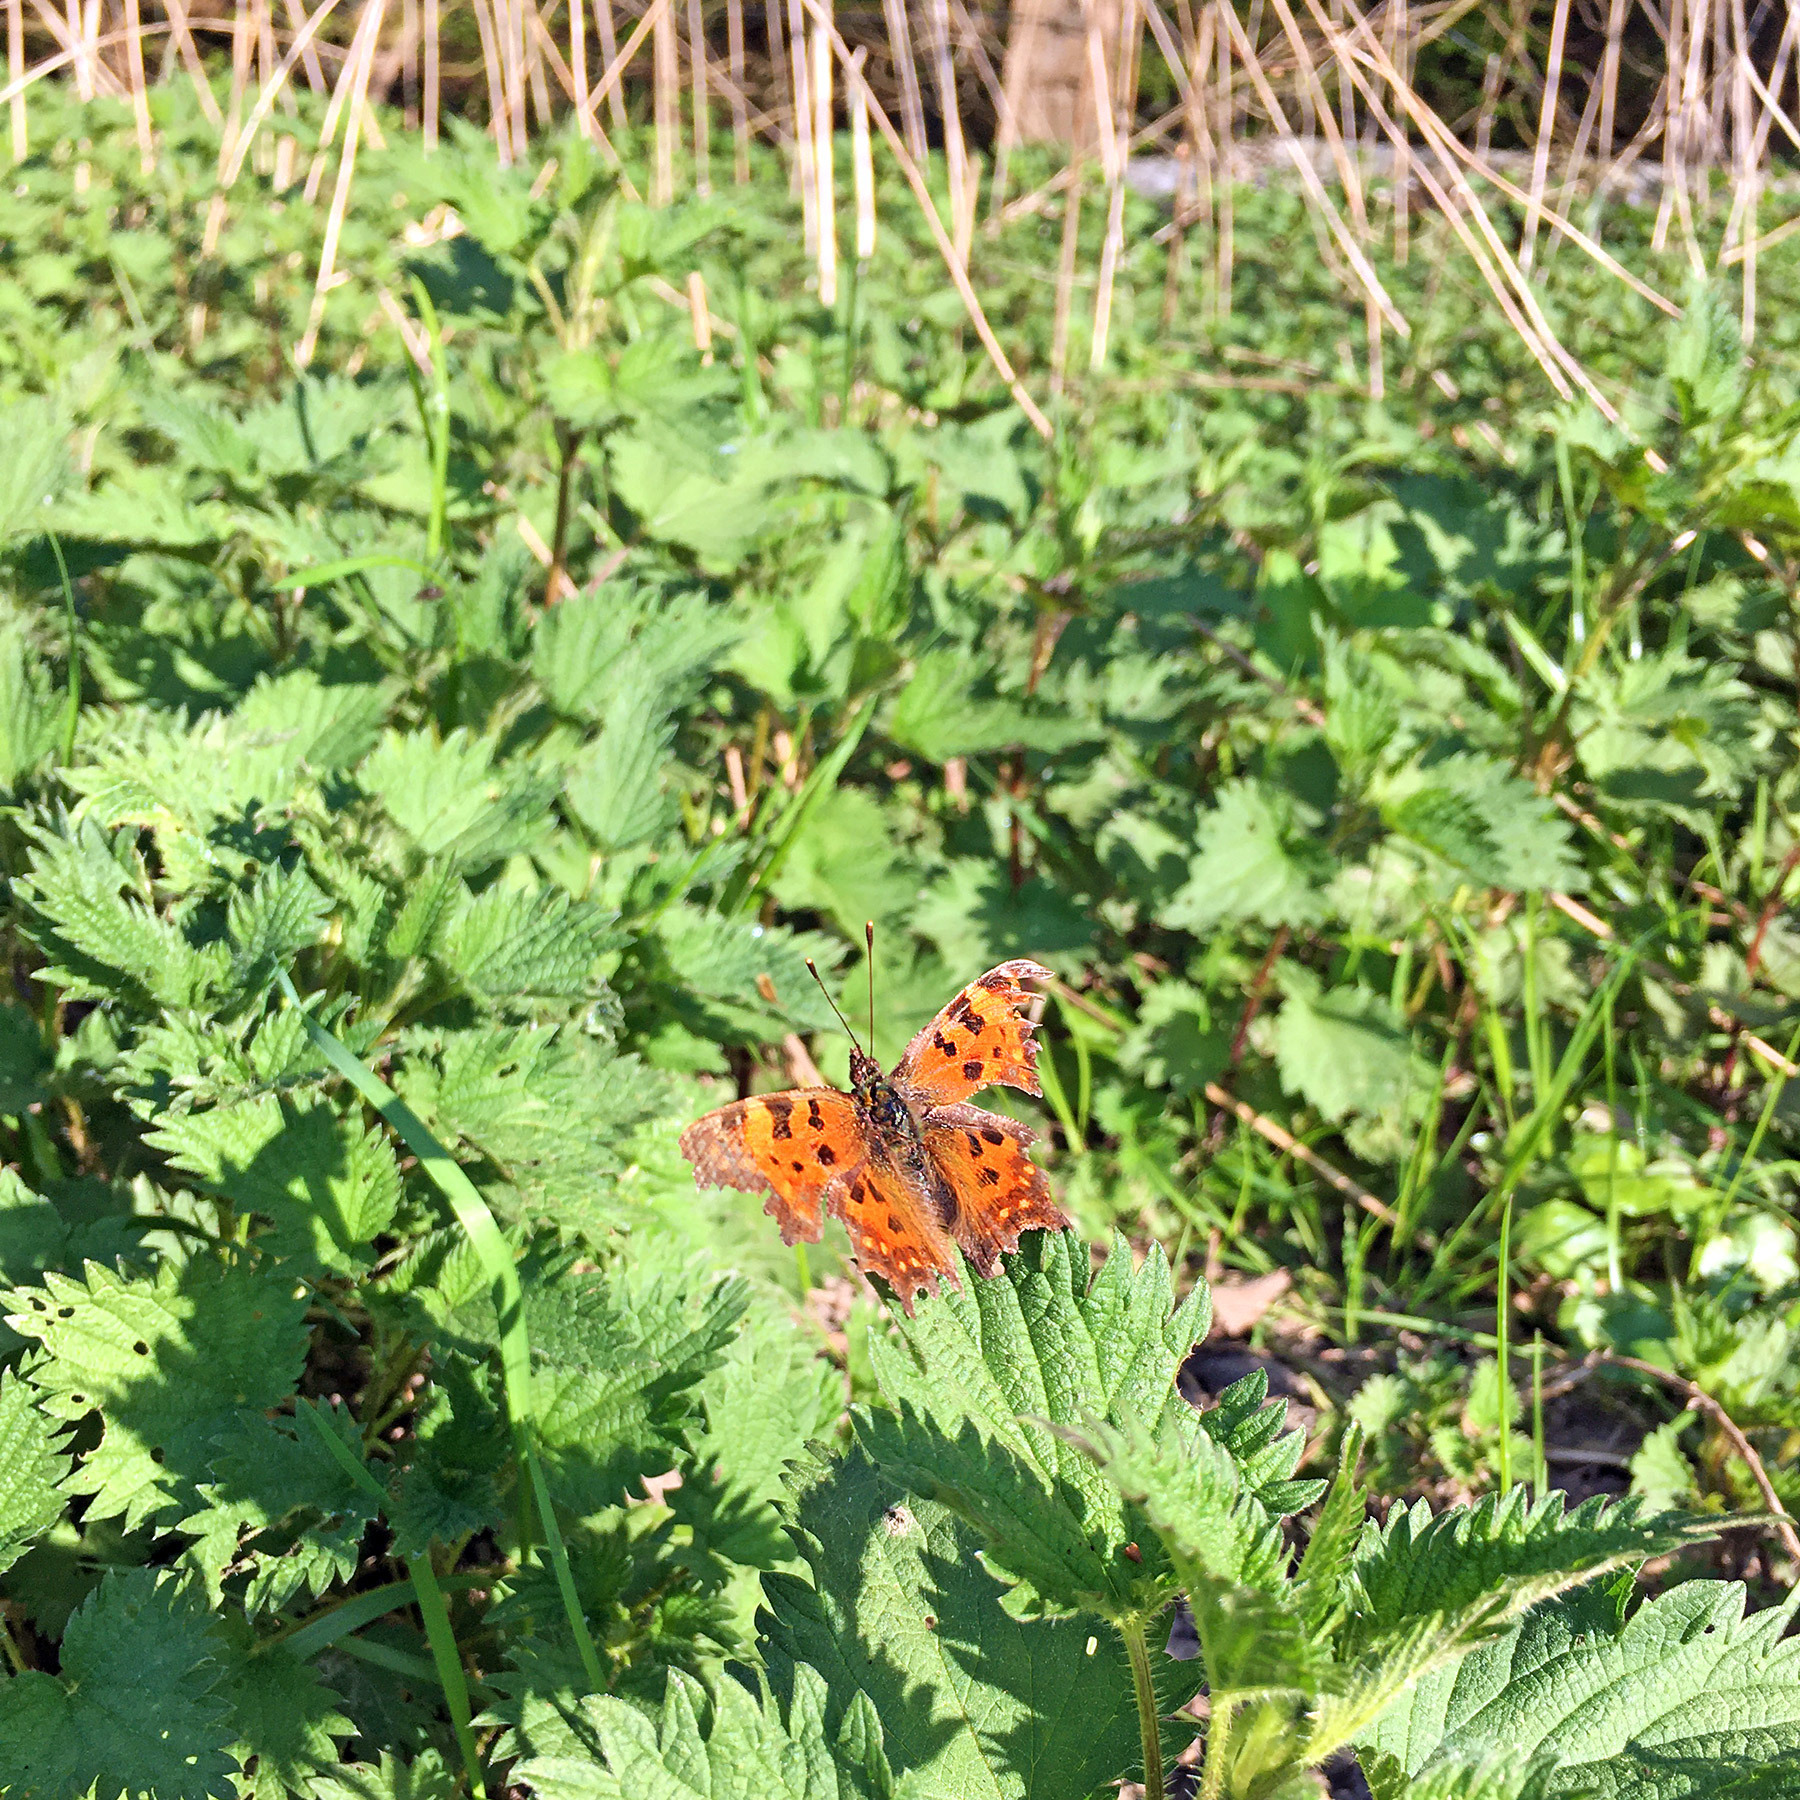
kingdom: Animalia
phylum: Arthropoda
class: Insecta
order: Lepidoptera
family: Nymphalidae
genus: Polygonia
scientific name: Polygonia c-album
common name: Comma
